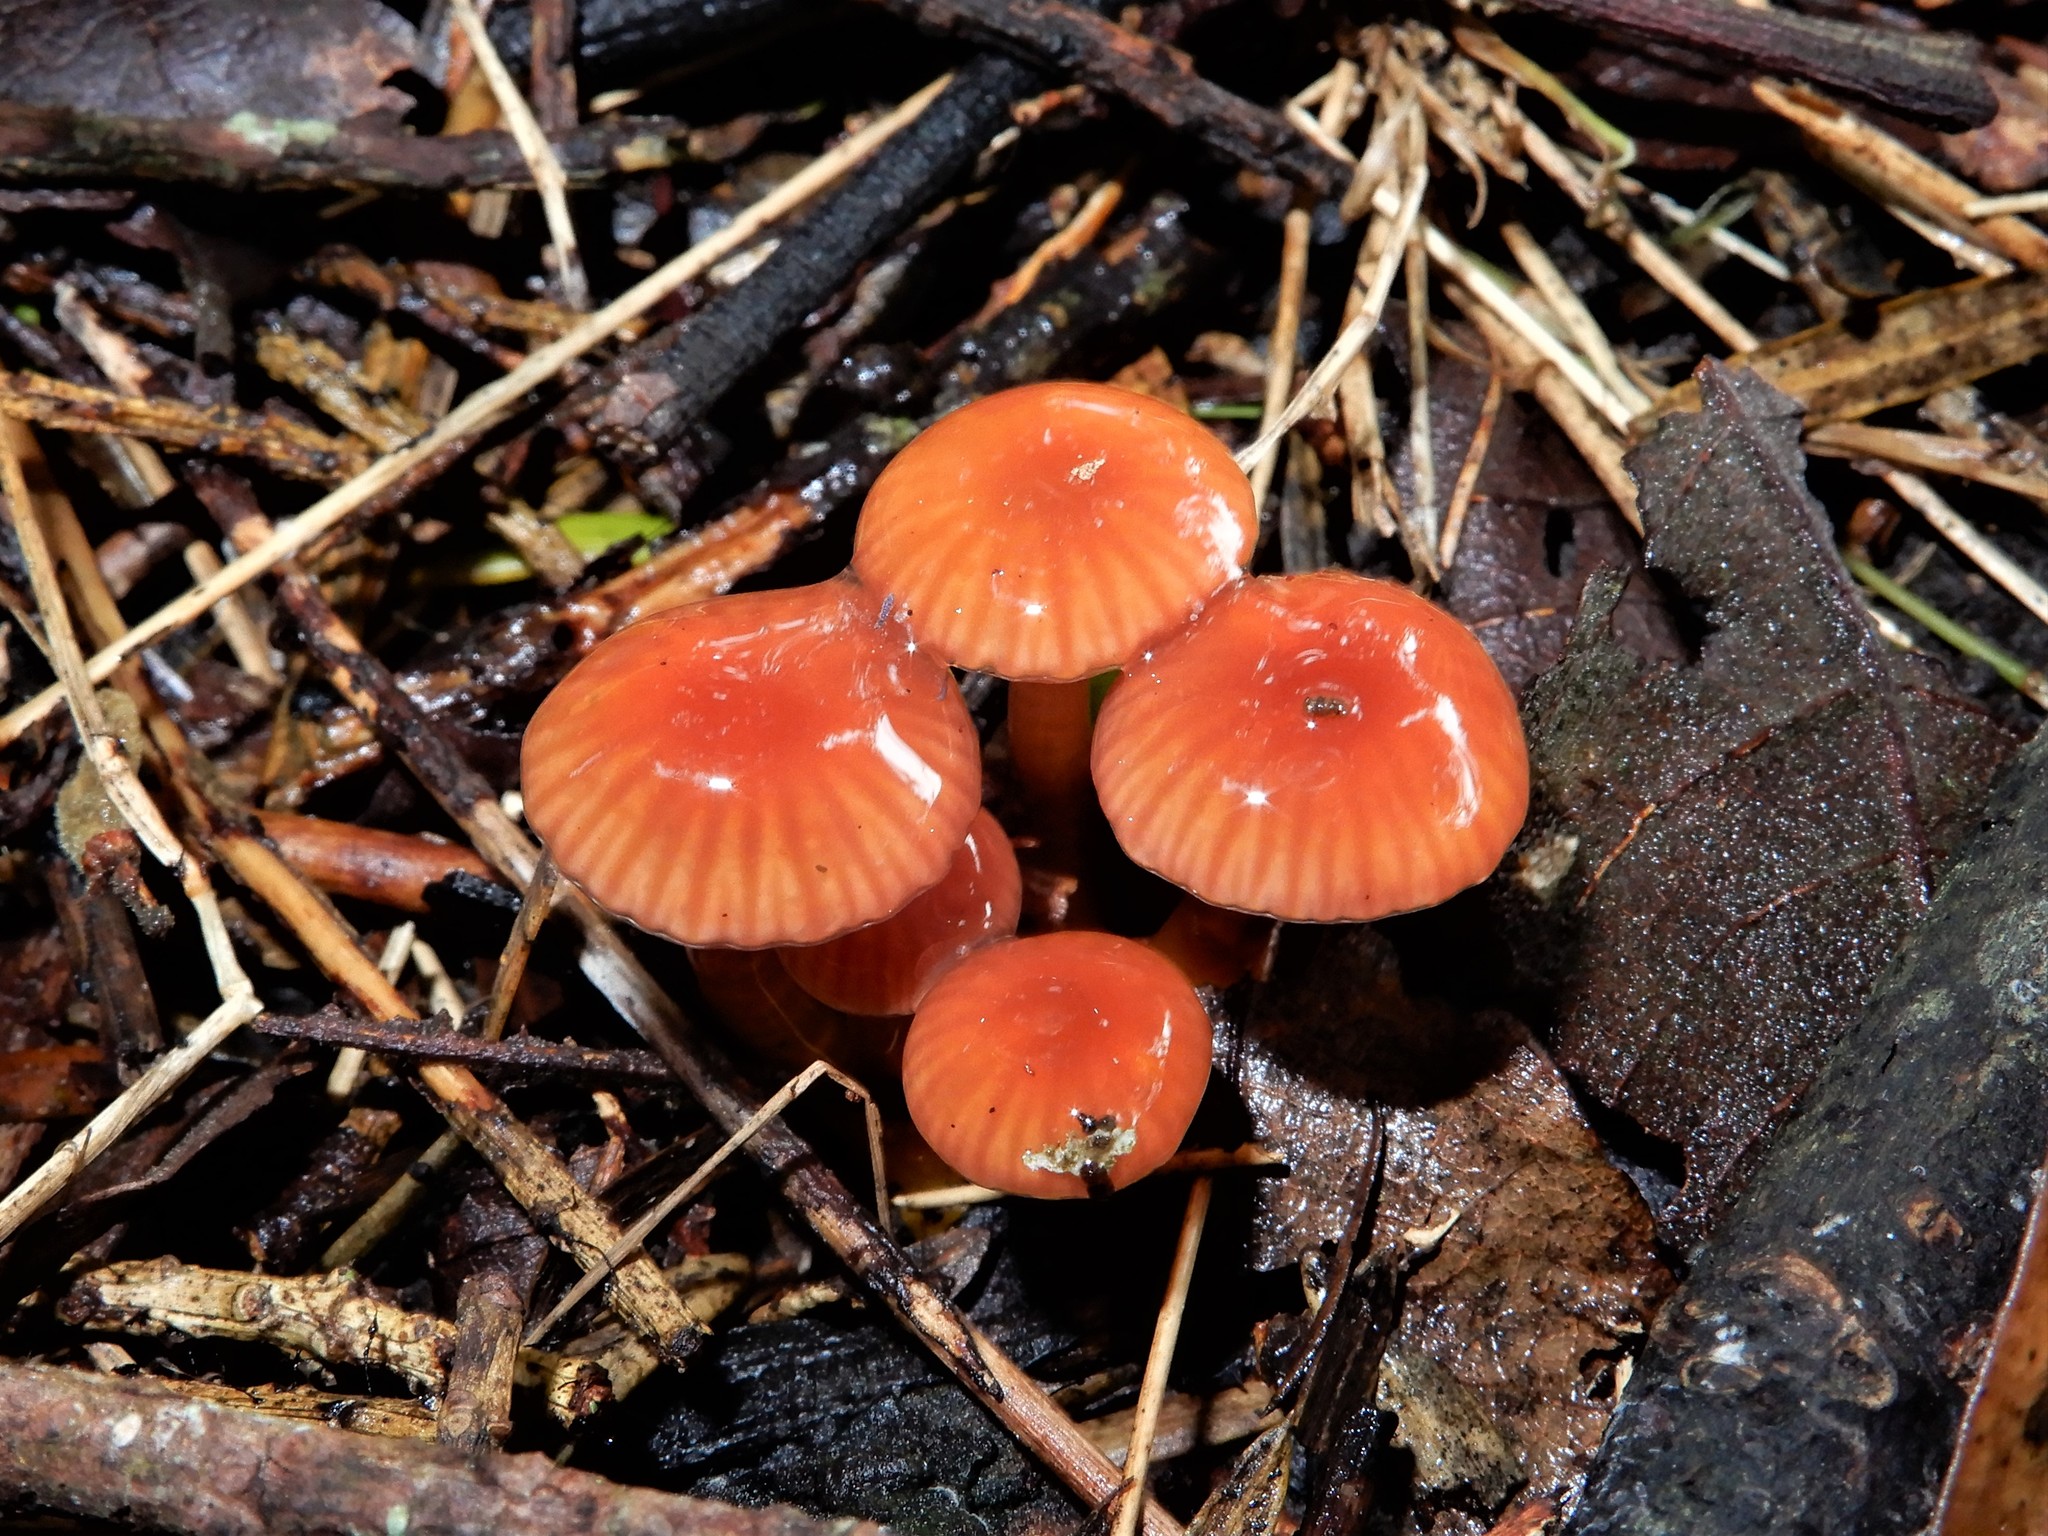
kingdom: Fungi
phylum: Basidiomycota
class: Agaricomycetes
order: Agaricales
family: Hygrophoraceae
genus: Hygrocybe
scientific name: Hygrocybe viscaurantia
